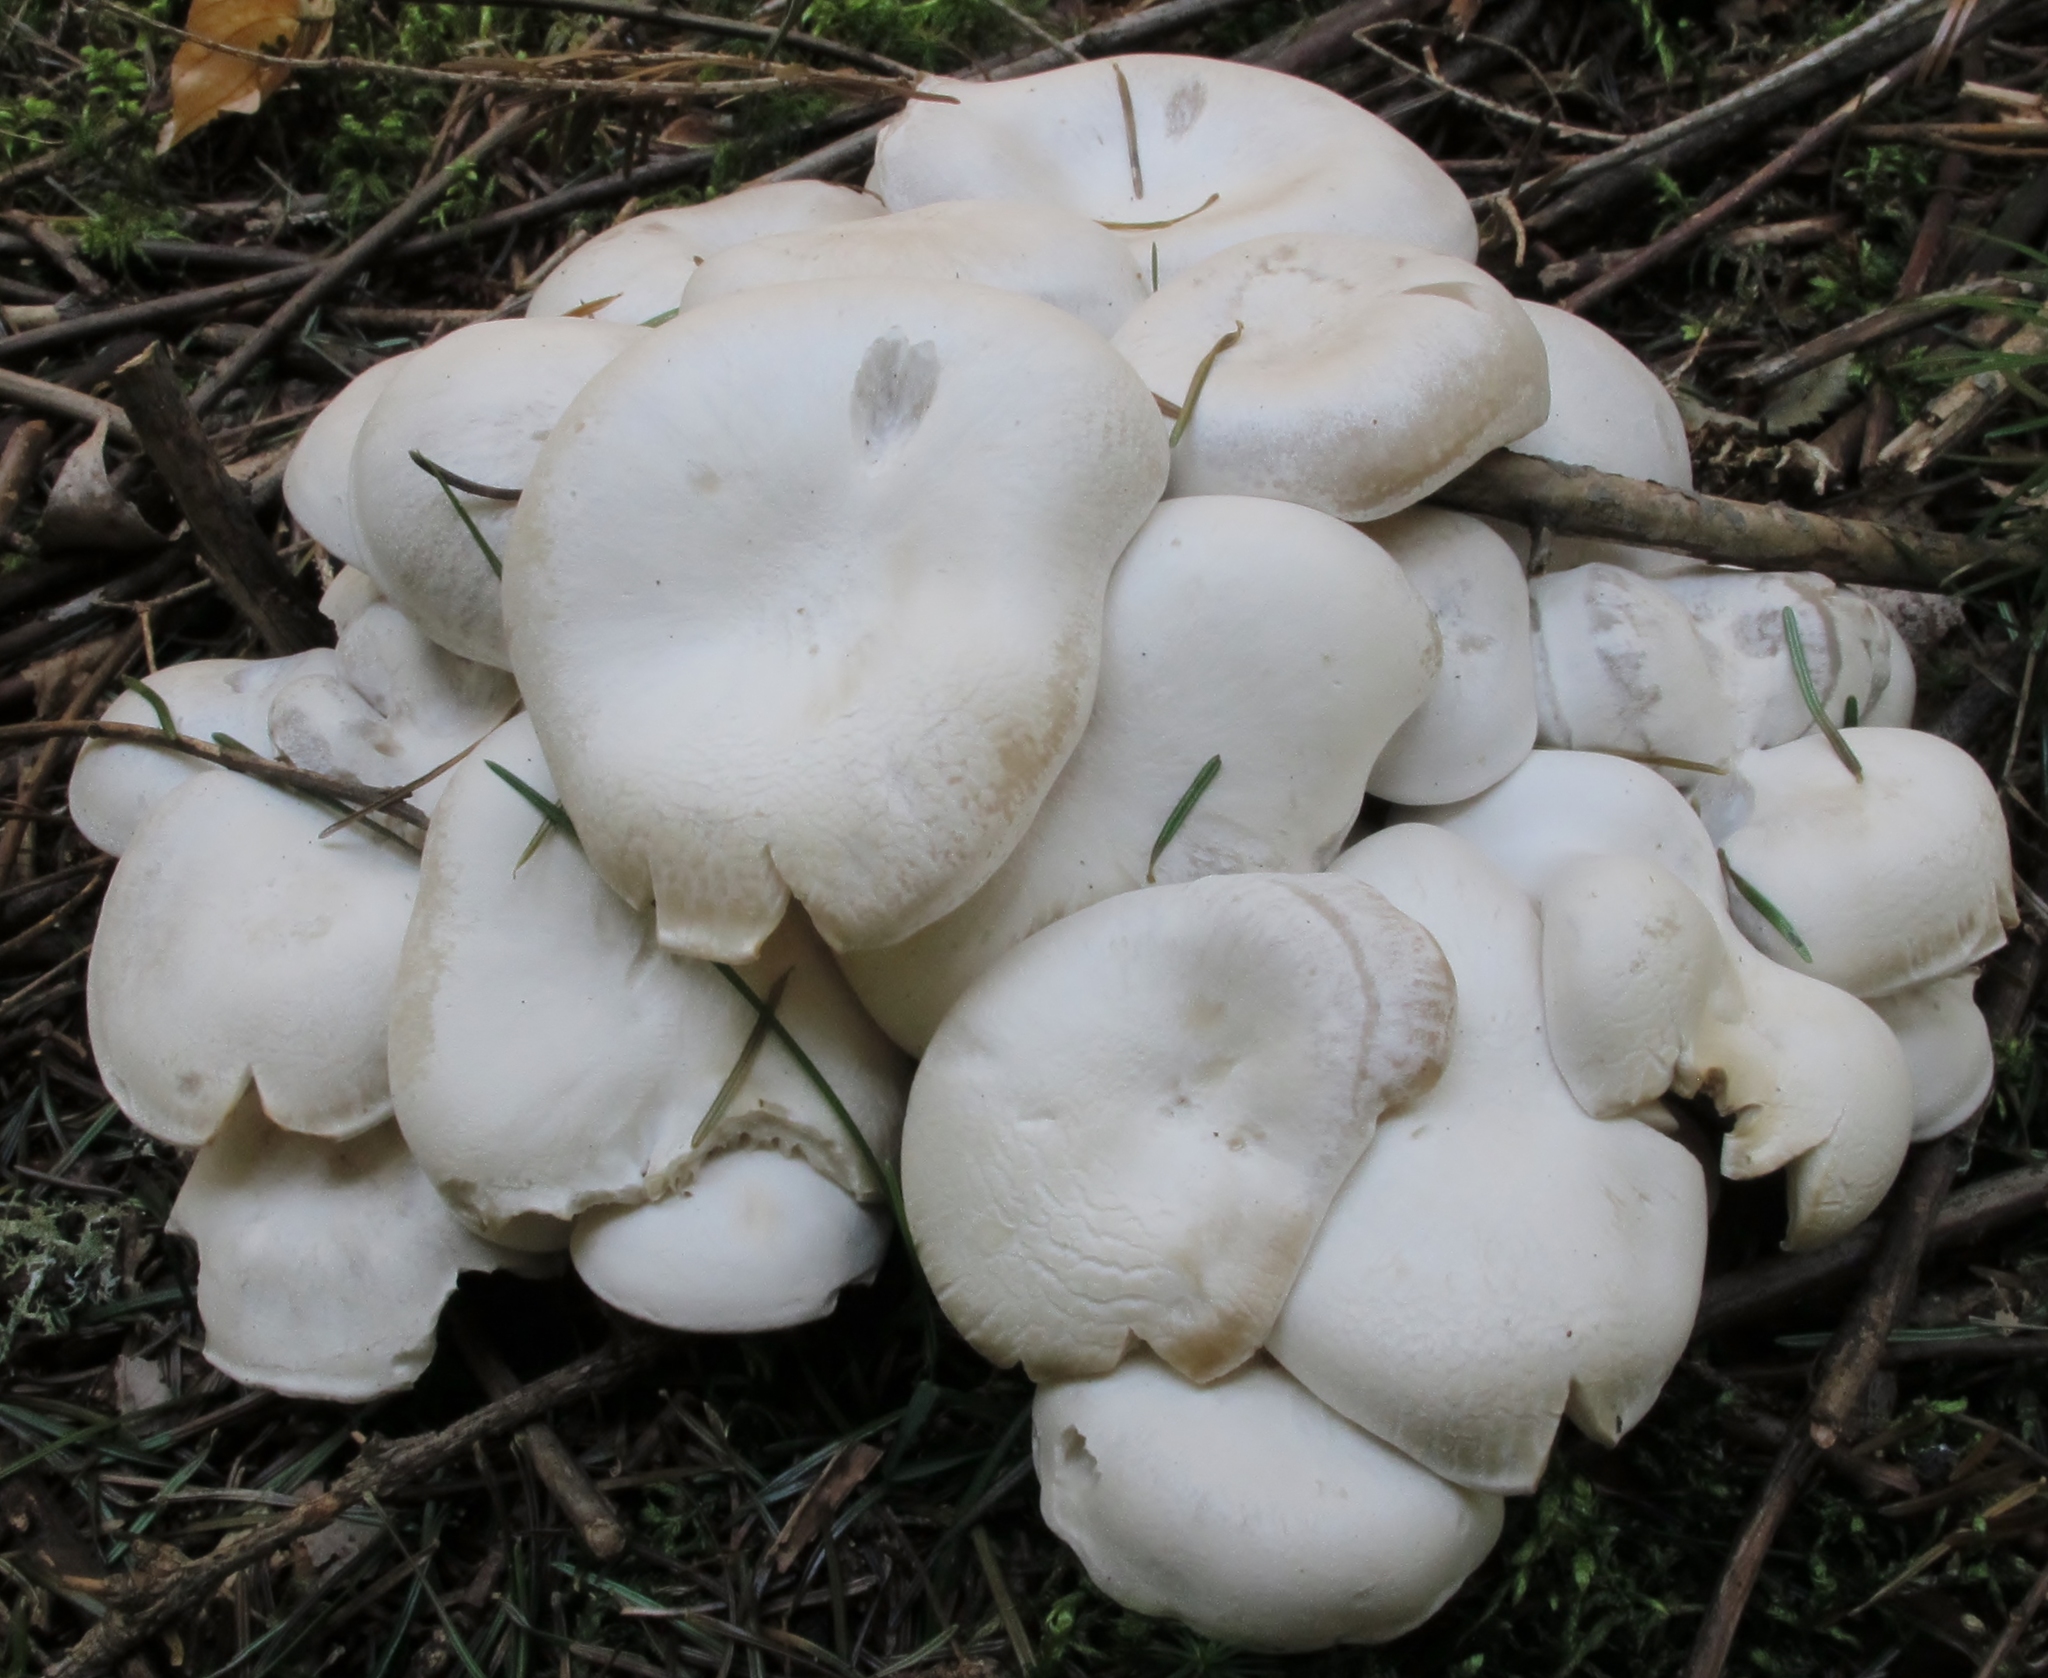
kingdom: Fungi
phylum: Basidiomycota
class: Agaricomycetes
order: Agaricales
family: Tricholomataceae
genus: Leucocybe
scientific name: Leucocybe connata
